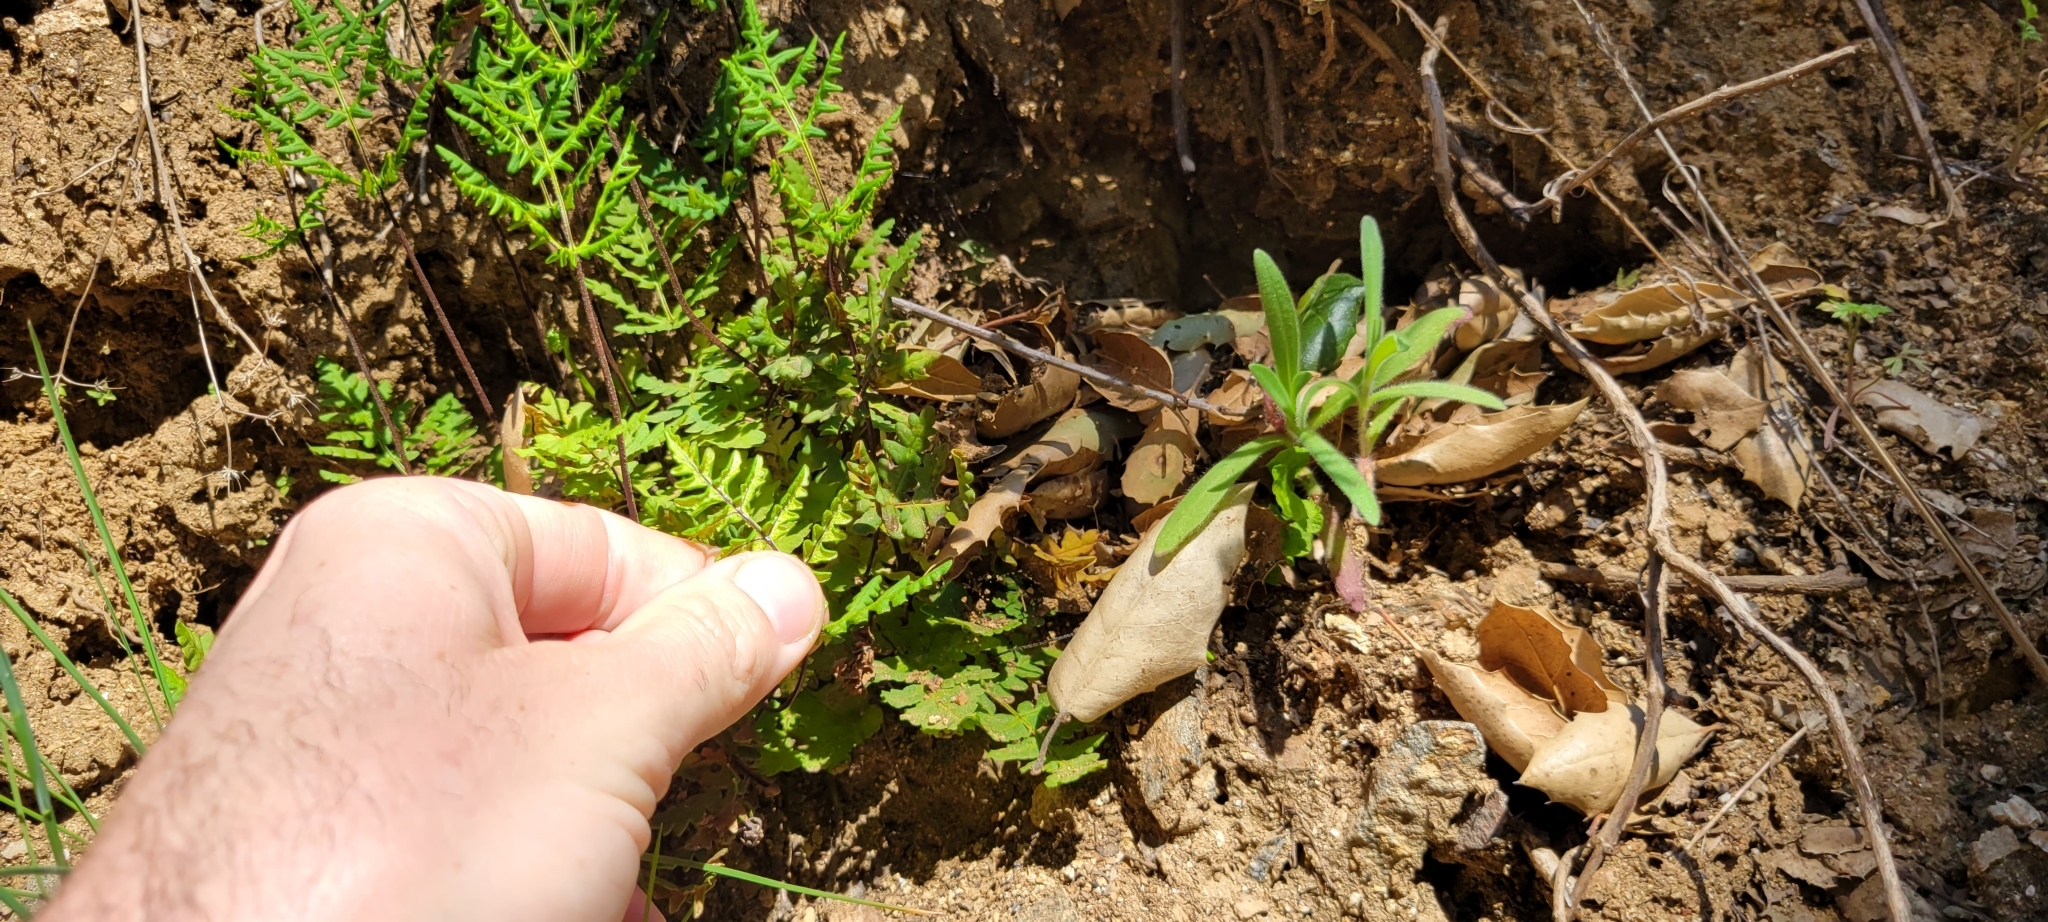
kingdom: Plantae
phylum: Tracheophyta
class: Polypodiopsida
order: Polypodiales
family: Pteridaceae
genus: Pentagramma
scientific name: Pentagramma triangularis
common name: Gold fern
